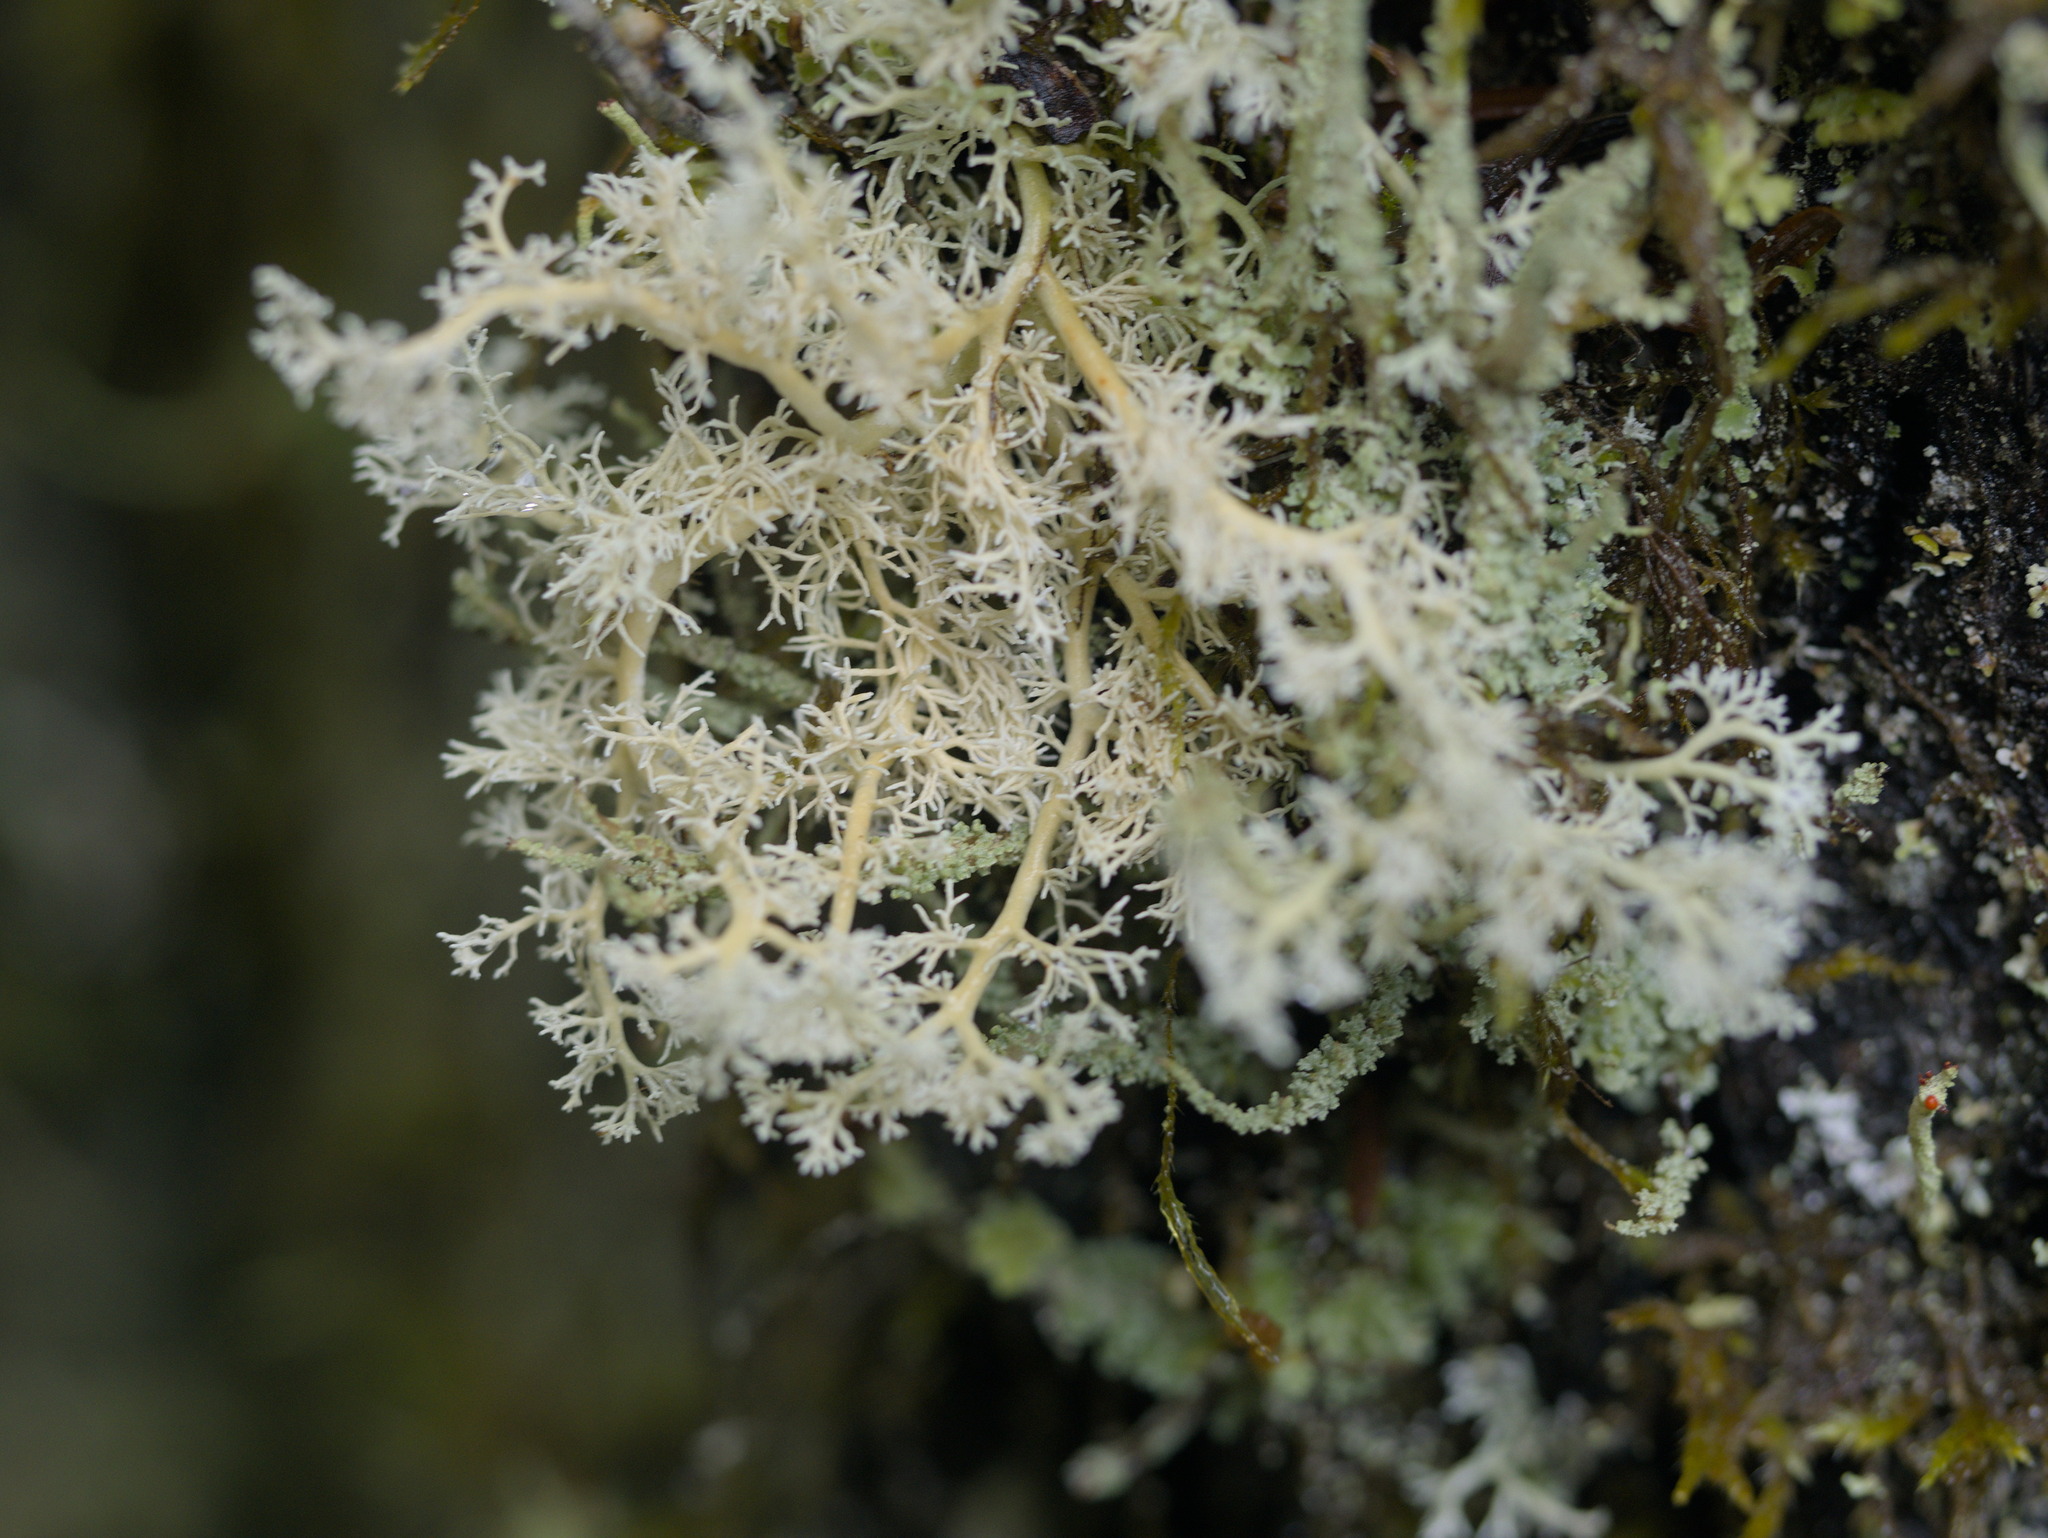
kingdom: Fungi
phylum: Ascomycota
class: Lecanoromycetes
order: Lecanorales
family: Sphaerophoraceae
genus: Sphaerophorus
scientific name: Sphaerophorus globosus
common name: Globe ball lichen
